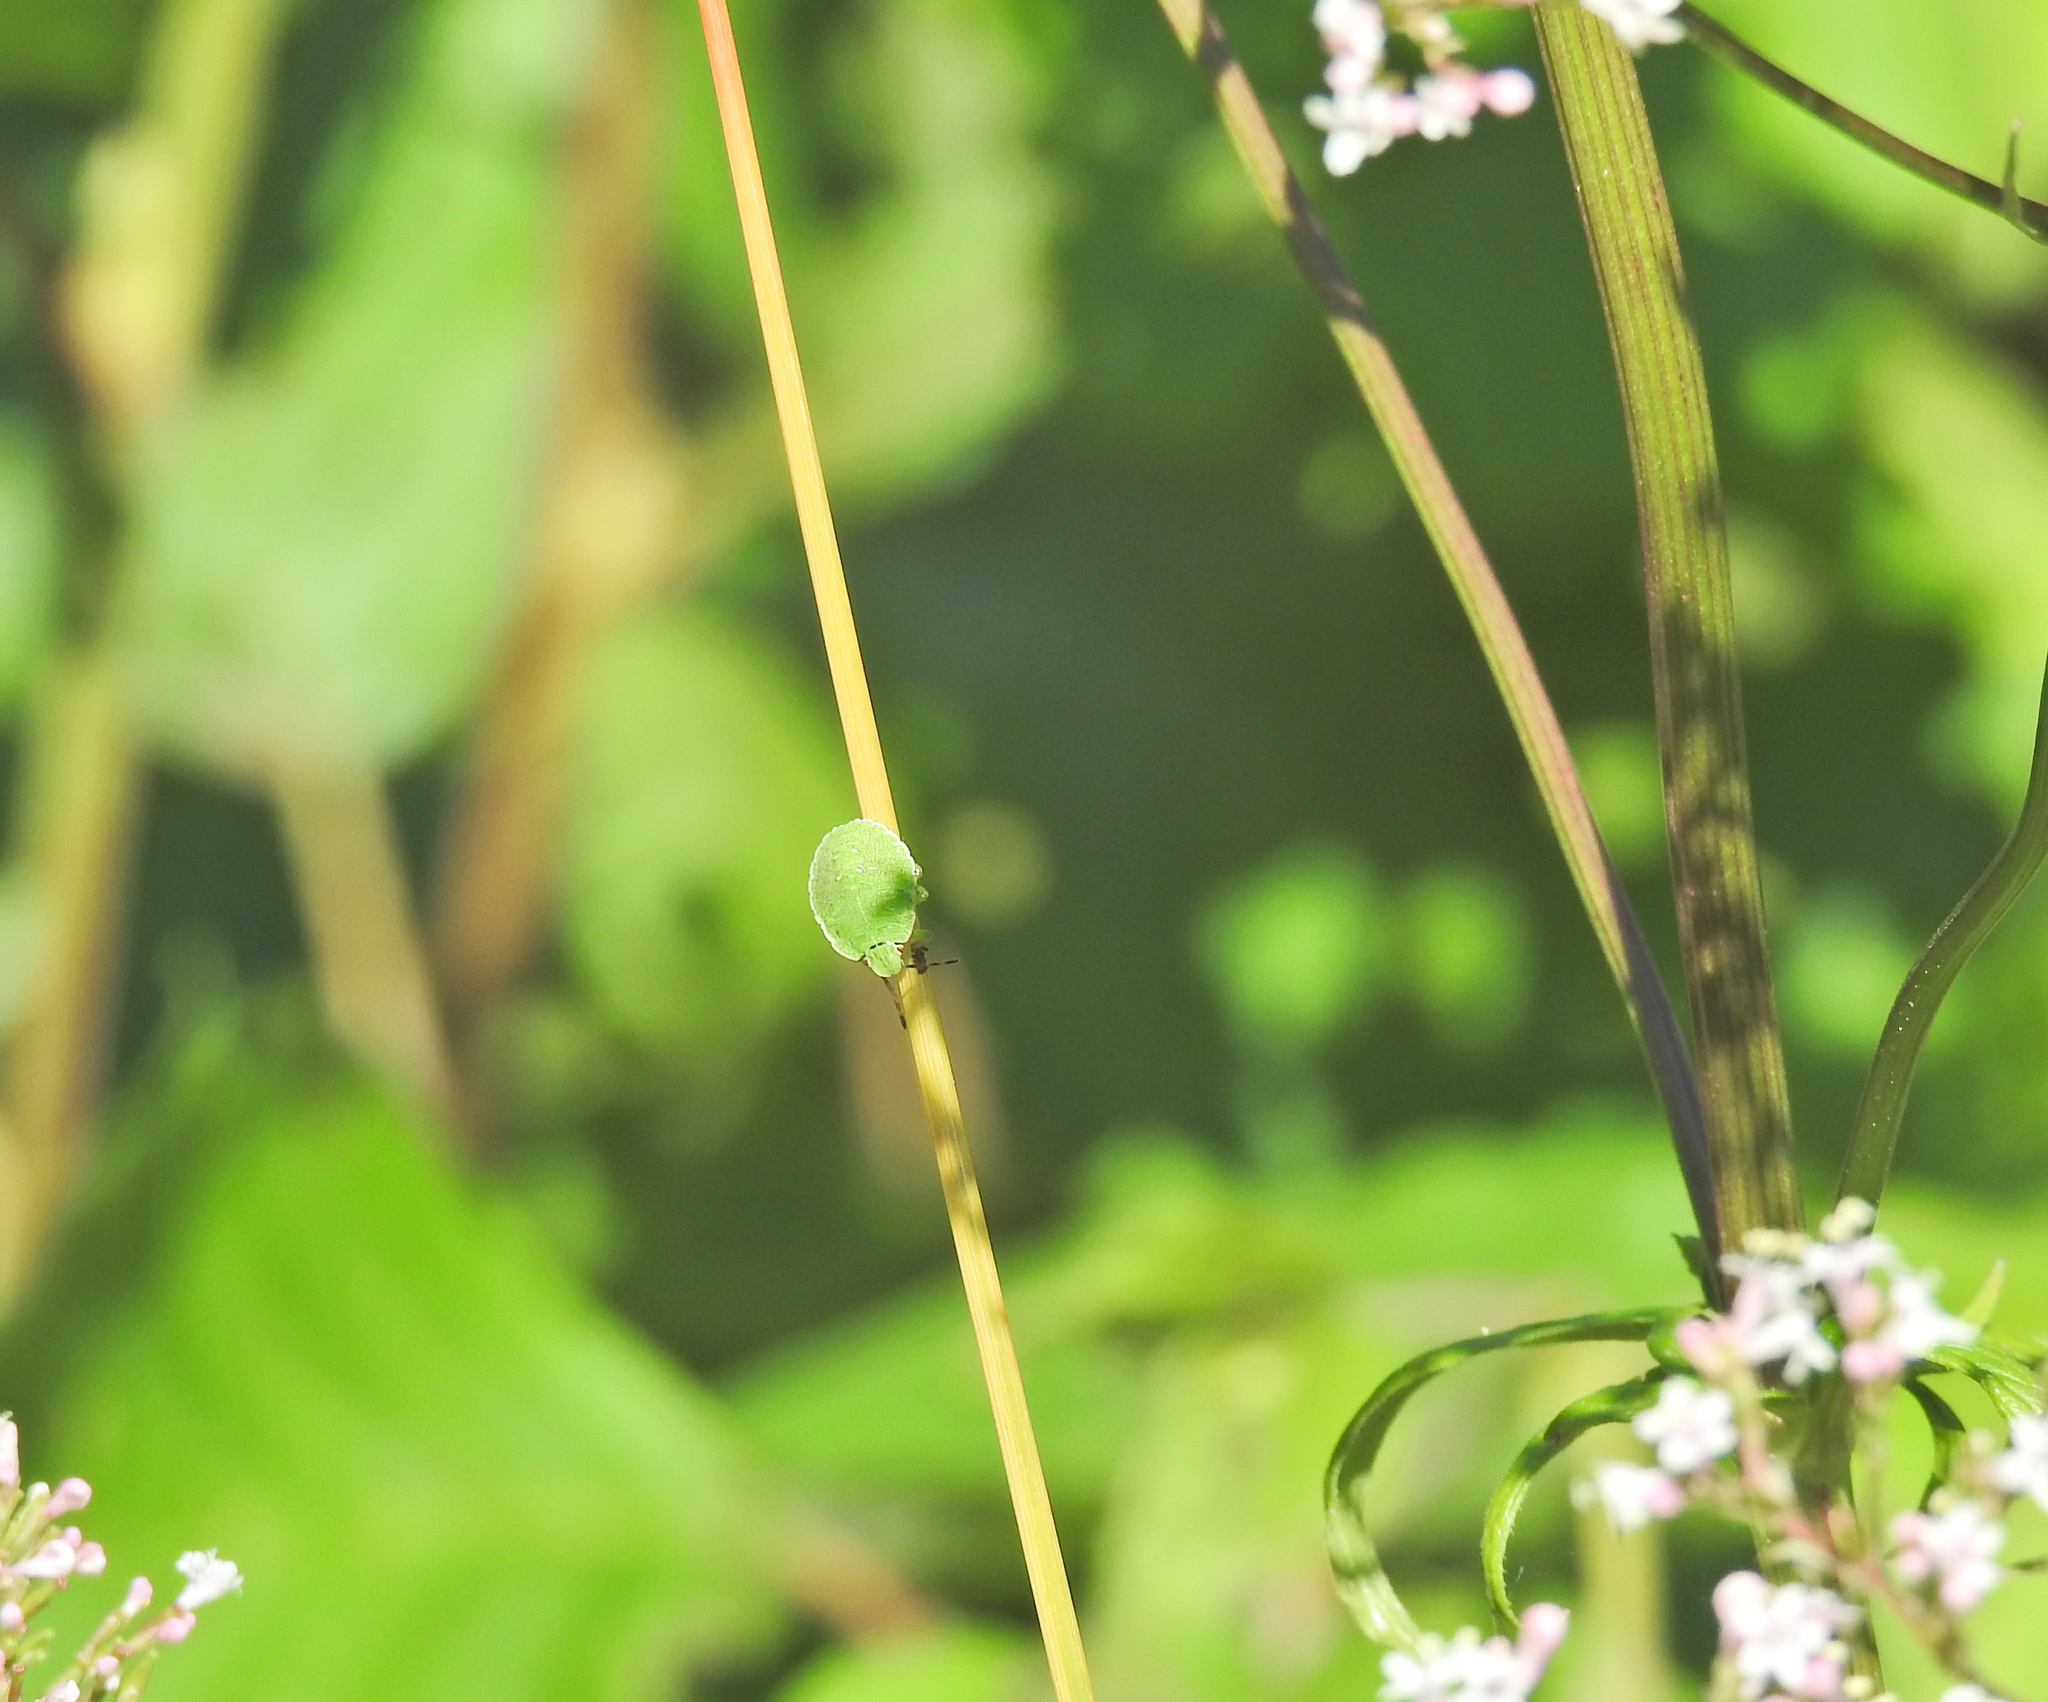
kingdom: Animalia
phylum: Arthropoda
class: Insecta
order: Hemiptera
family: Pentatomidae
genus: Palomena
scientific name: Palomena prasina
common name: Green shieldbug
